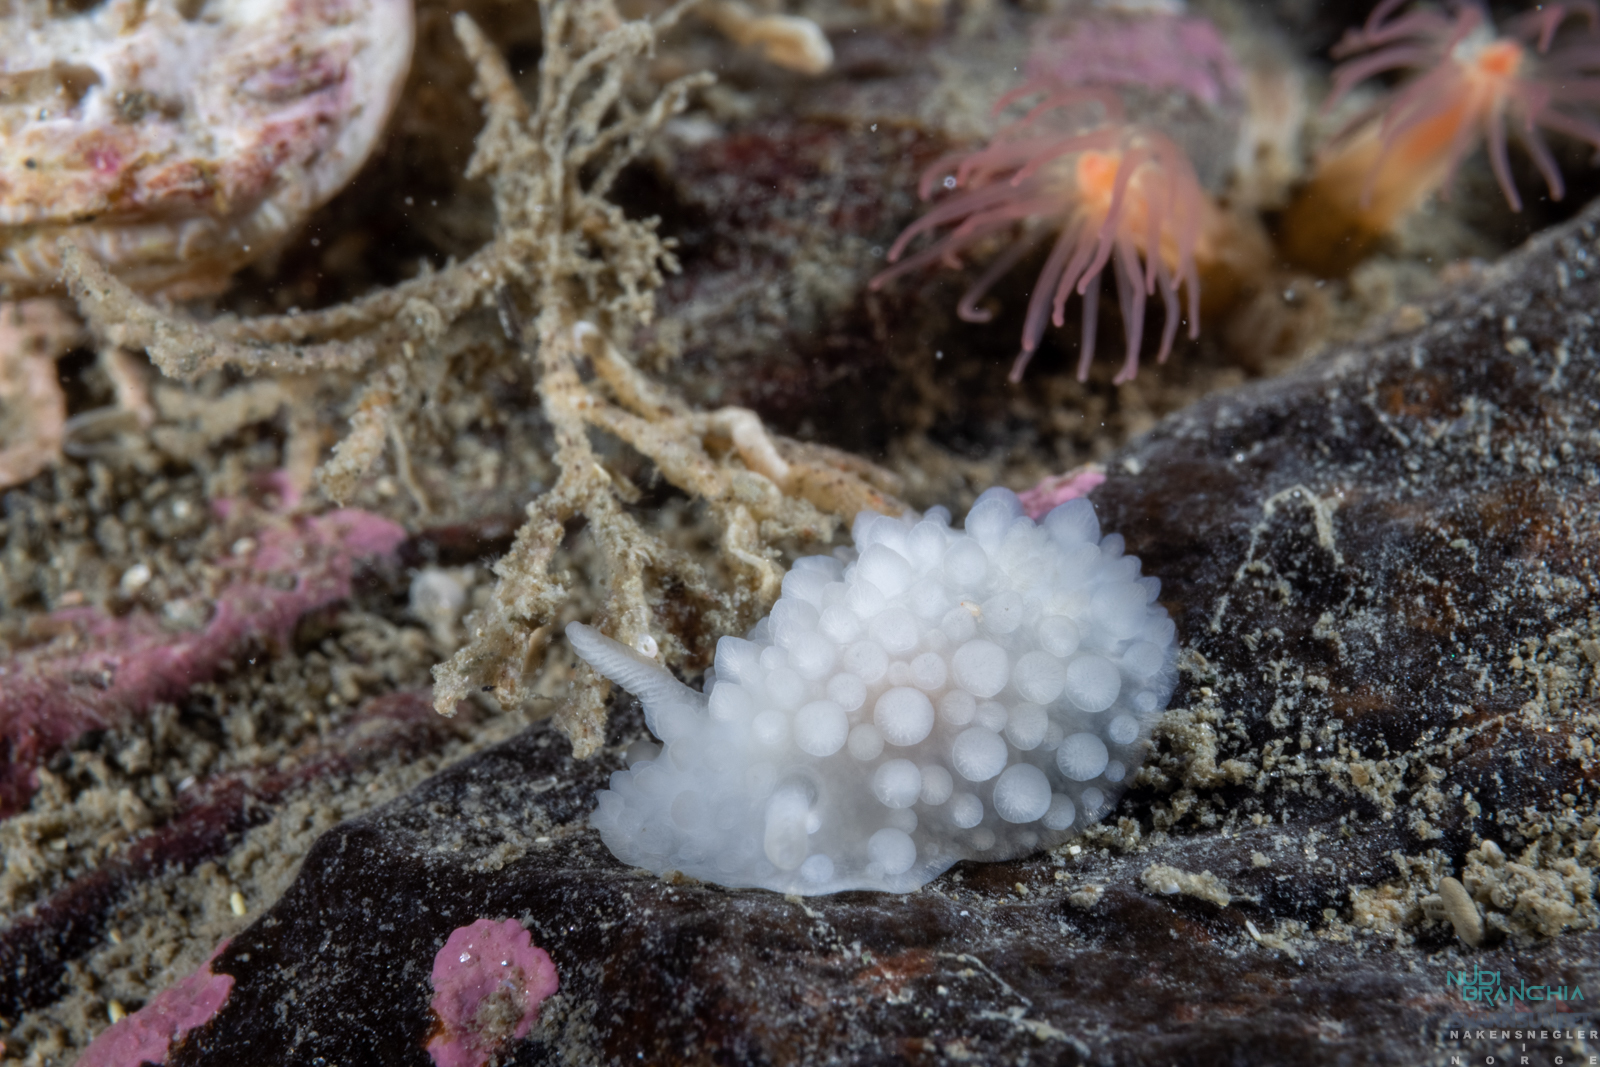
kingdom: Animalia
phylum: Mollusca
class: Gastropoda
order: Nudibranchia
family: Onchidorididae
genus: Adalaria
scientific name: Adalaria proxima
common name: False doris
